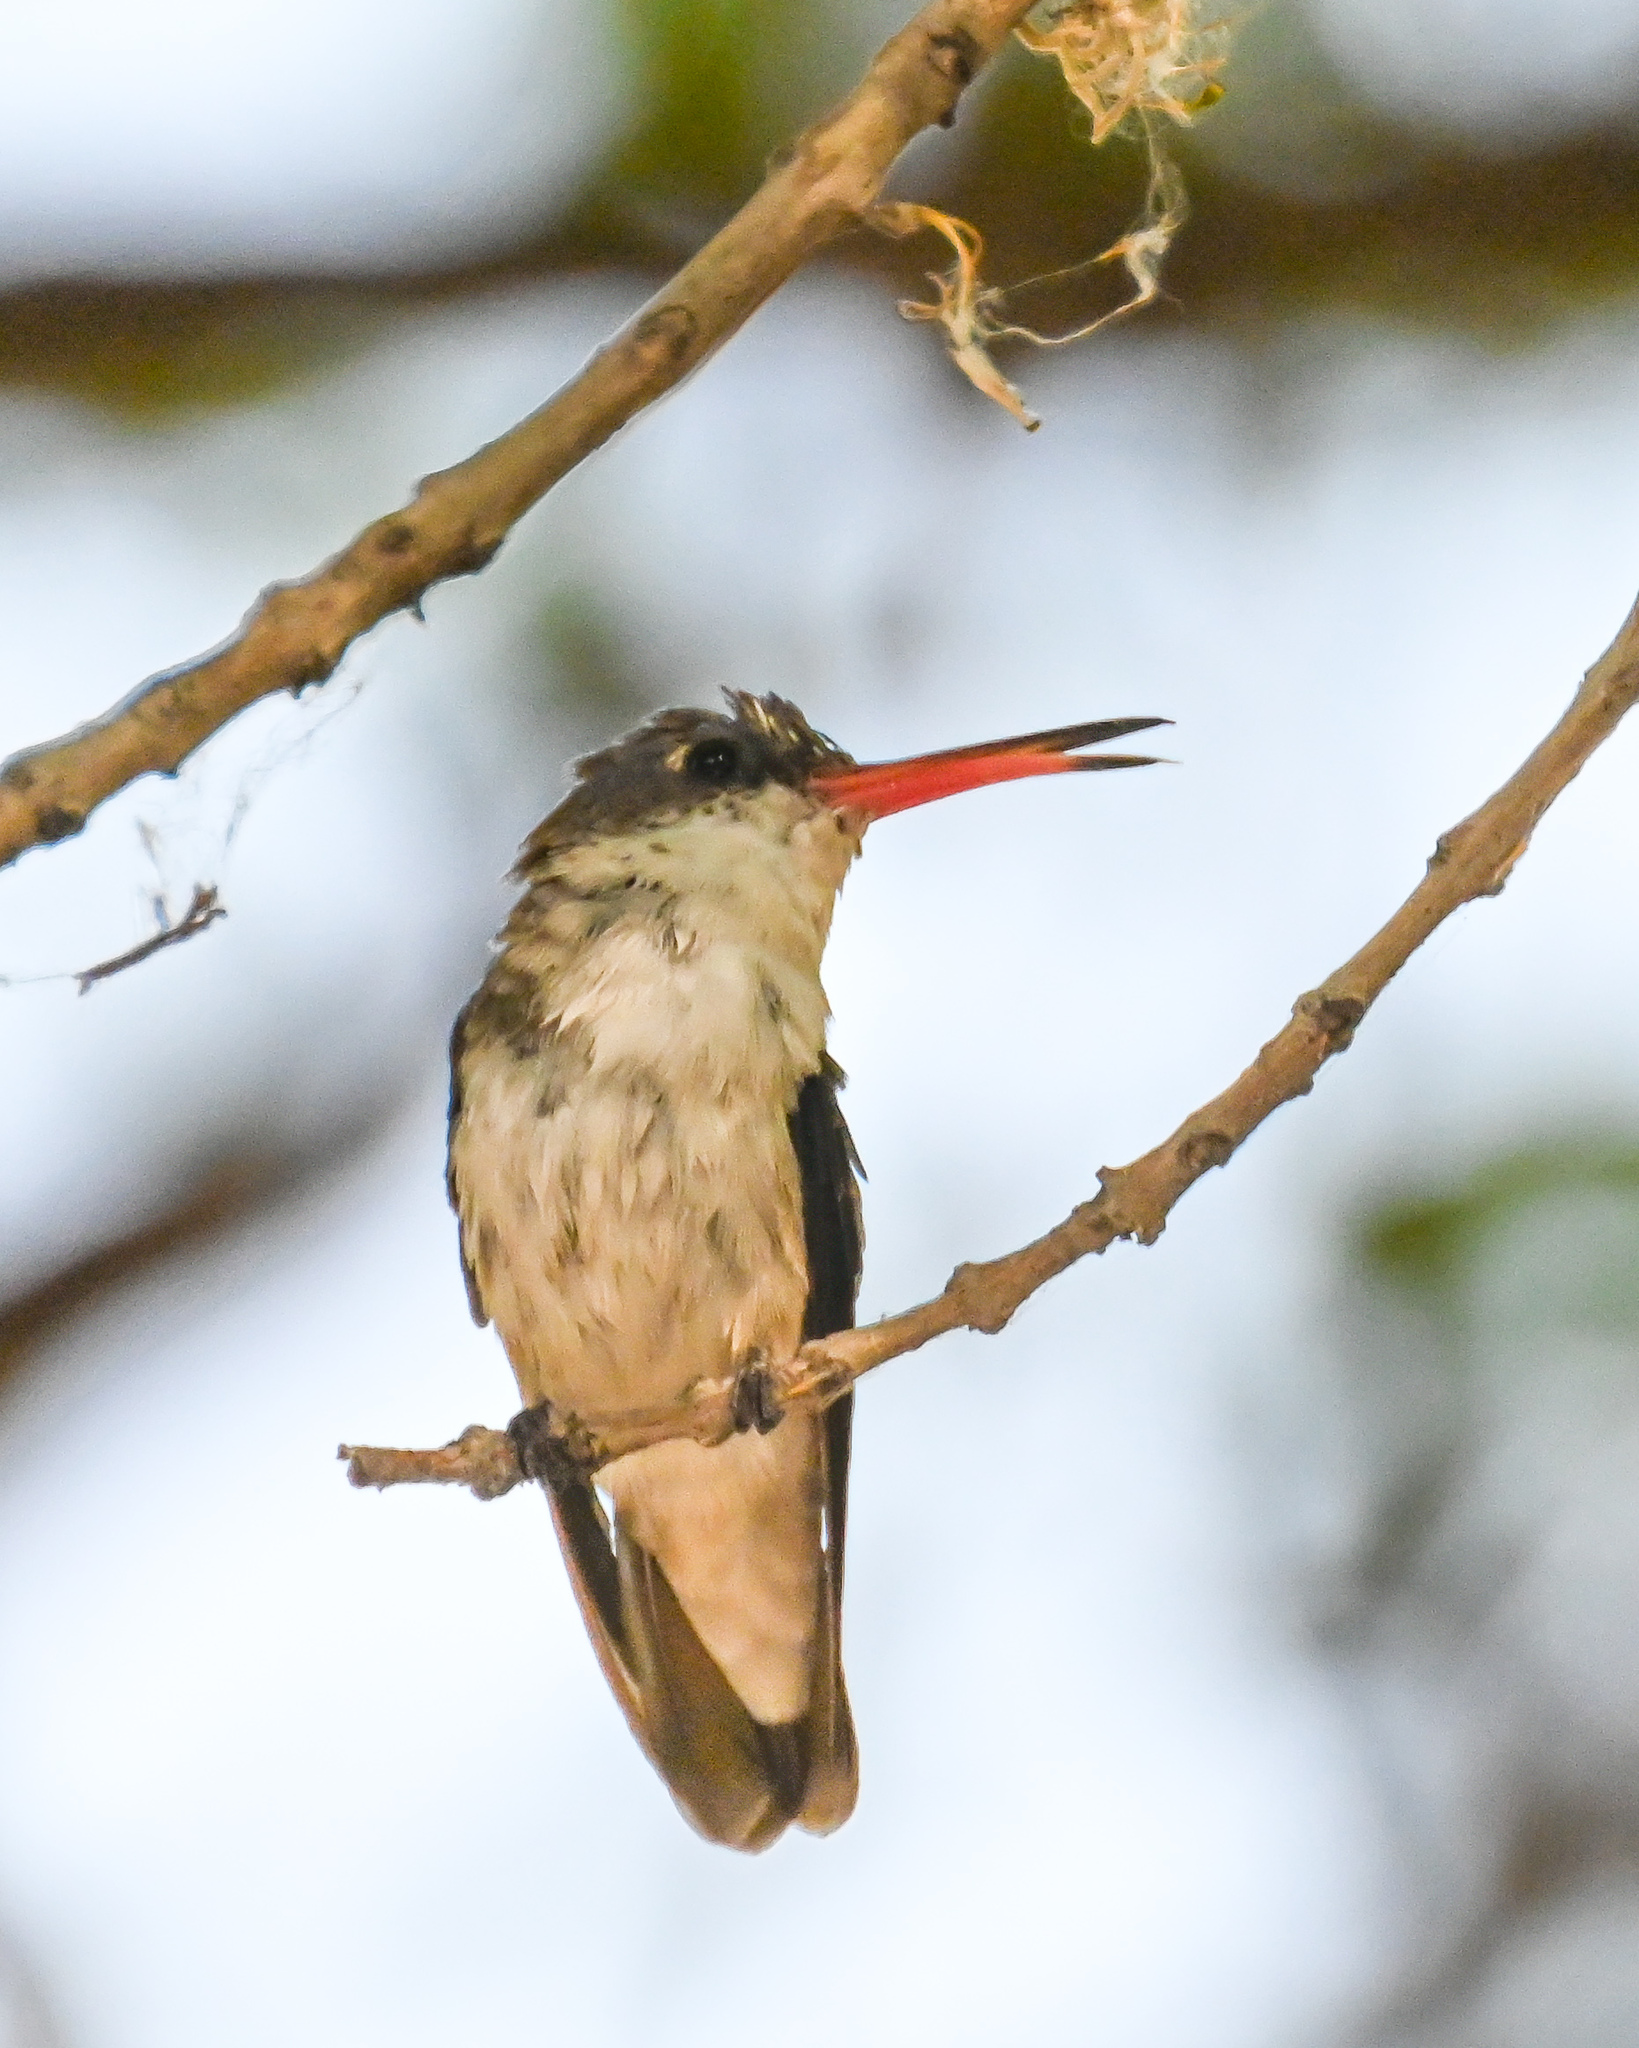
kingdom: Animalia
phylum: Chordata
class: Aves
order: Apodiformes
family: Trochilidae
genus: Leucolia
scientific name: Leucolia violiceps
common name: Violet-crowned hummingbird
